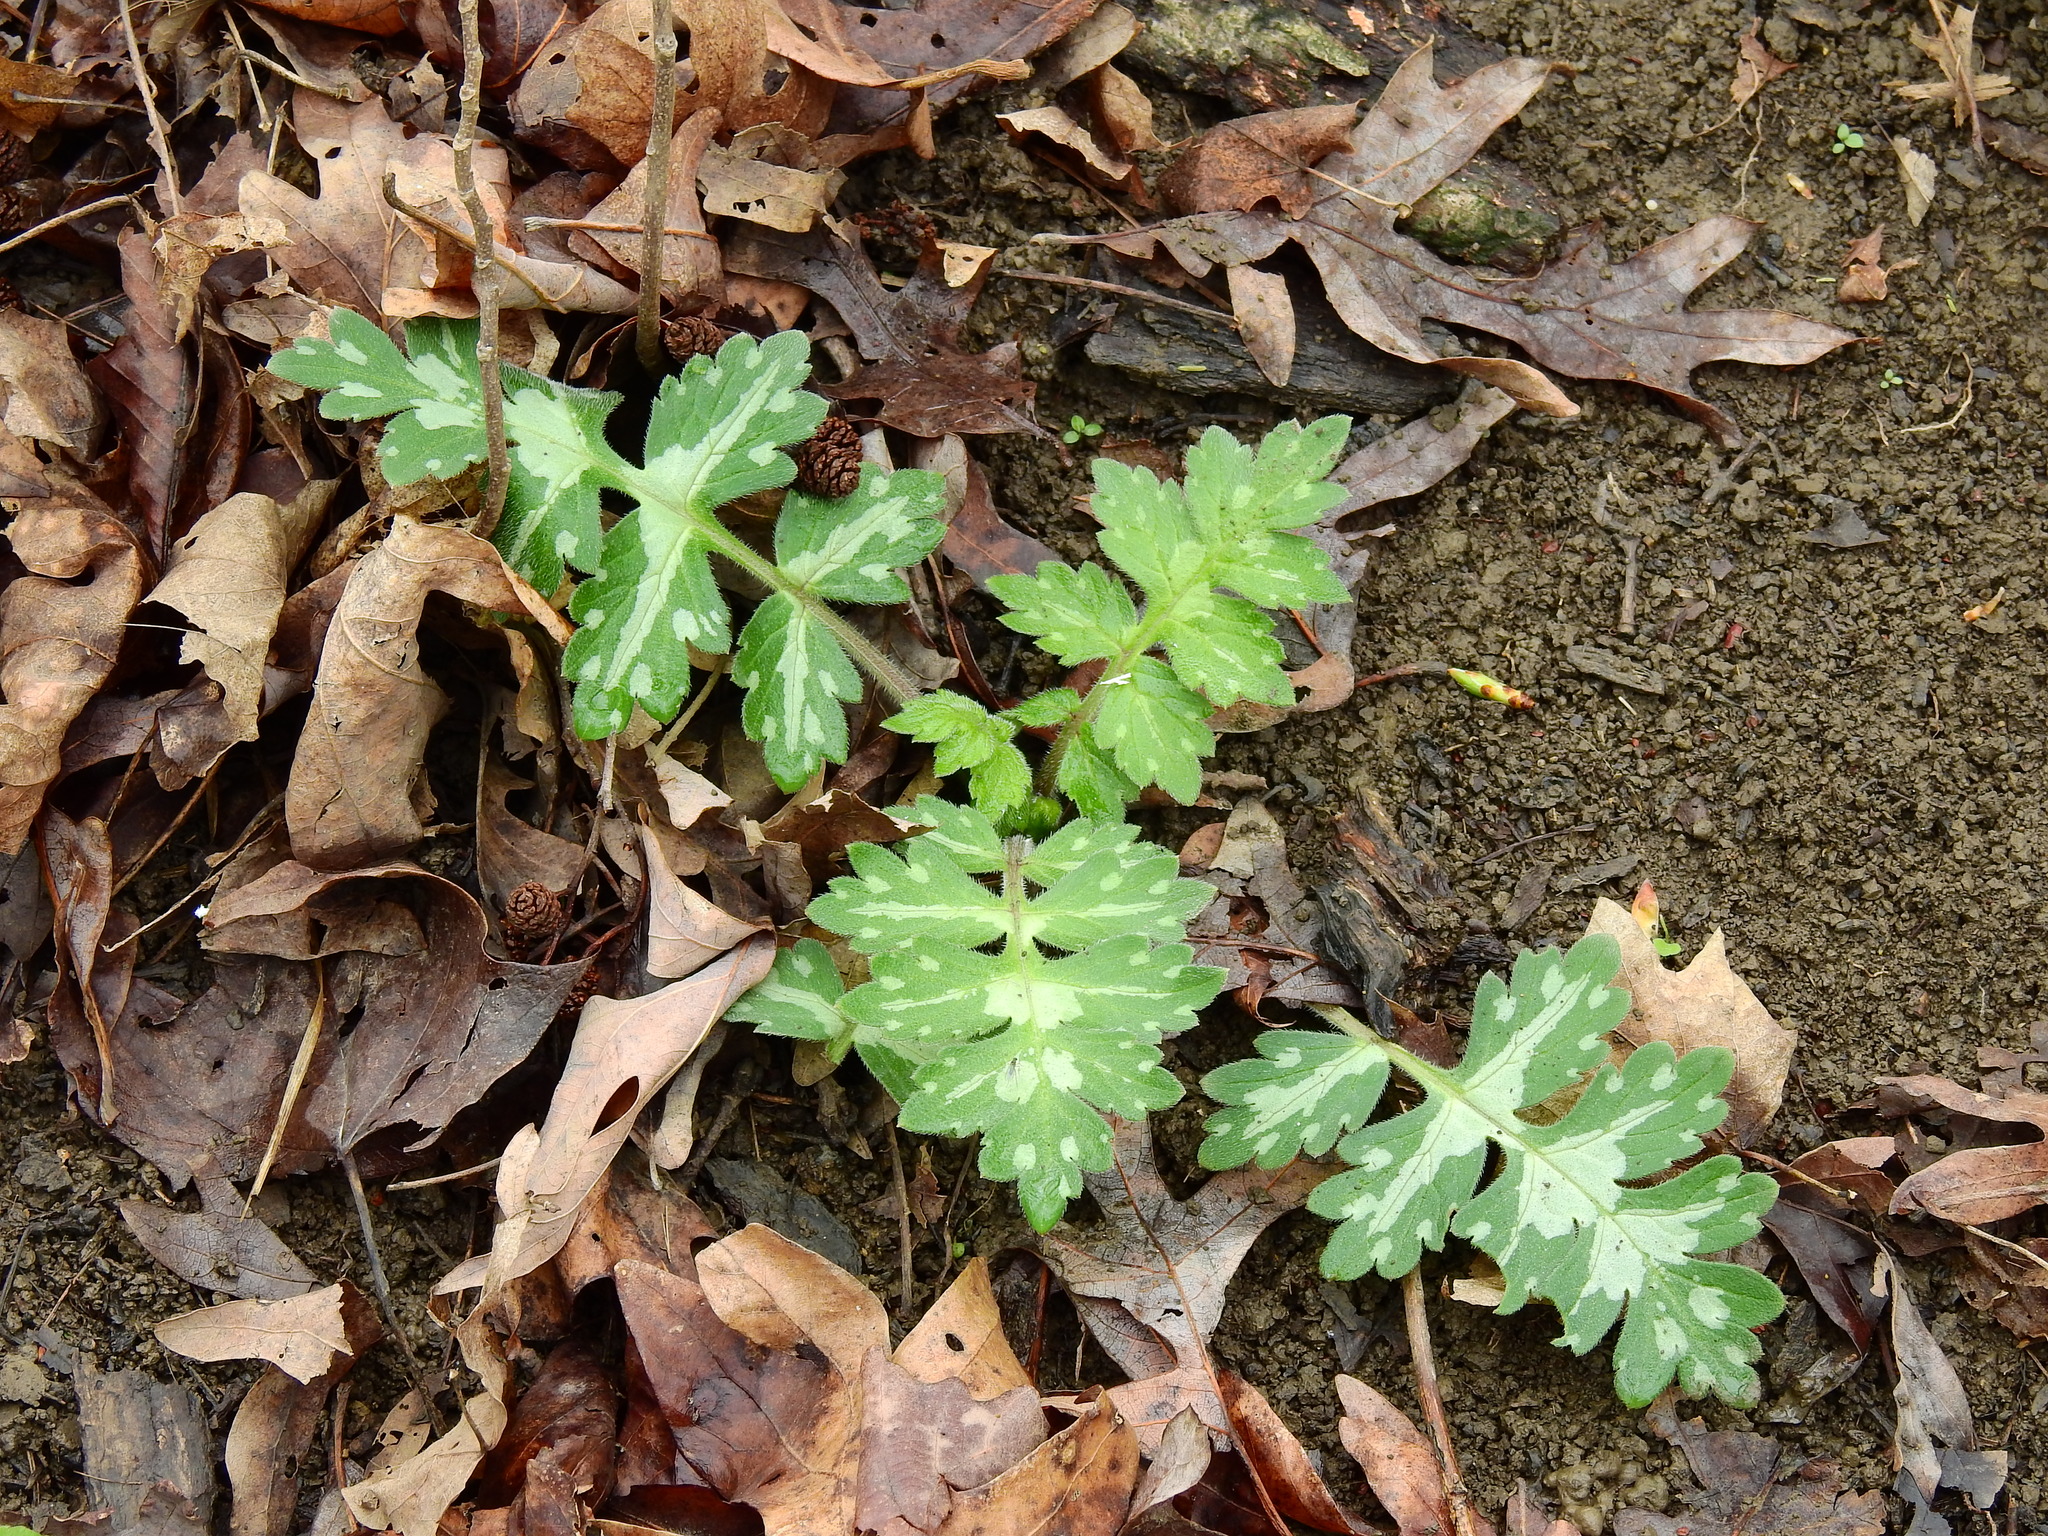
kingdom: Plantae
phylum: Tracheophyta
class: Magnoliopsida
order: Boraginales
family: Hydrophyllaceae
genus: Hydrophyllum
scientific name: Hydrophyllum macrophyllum
